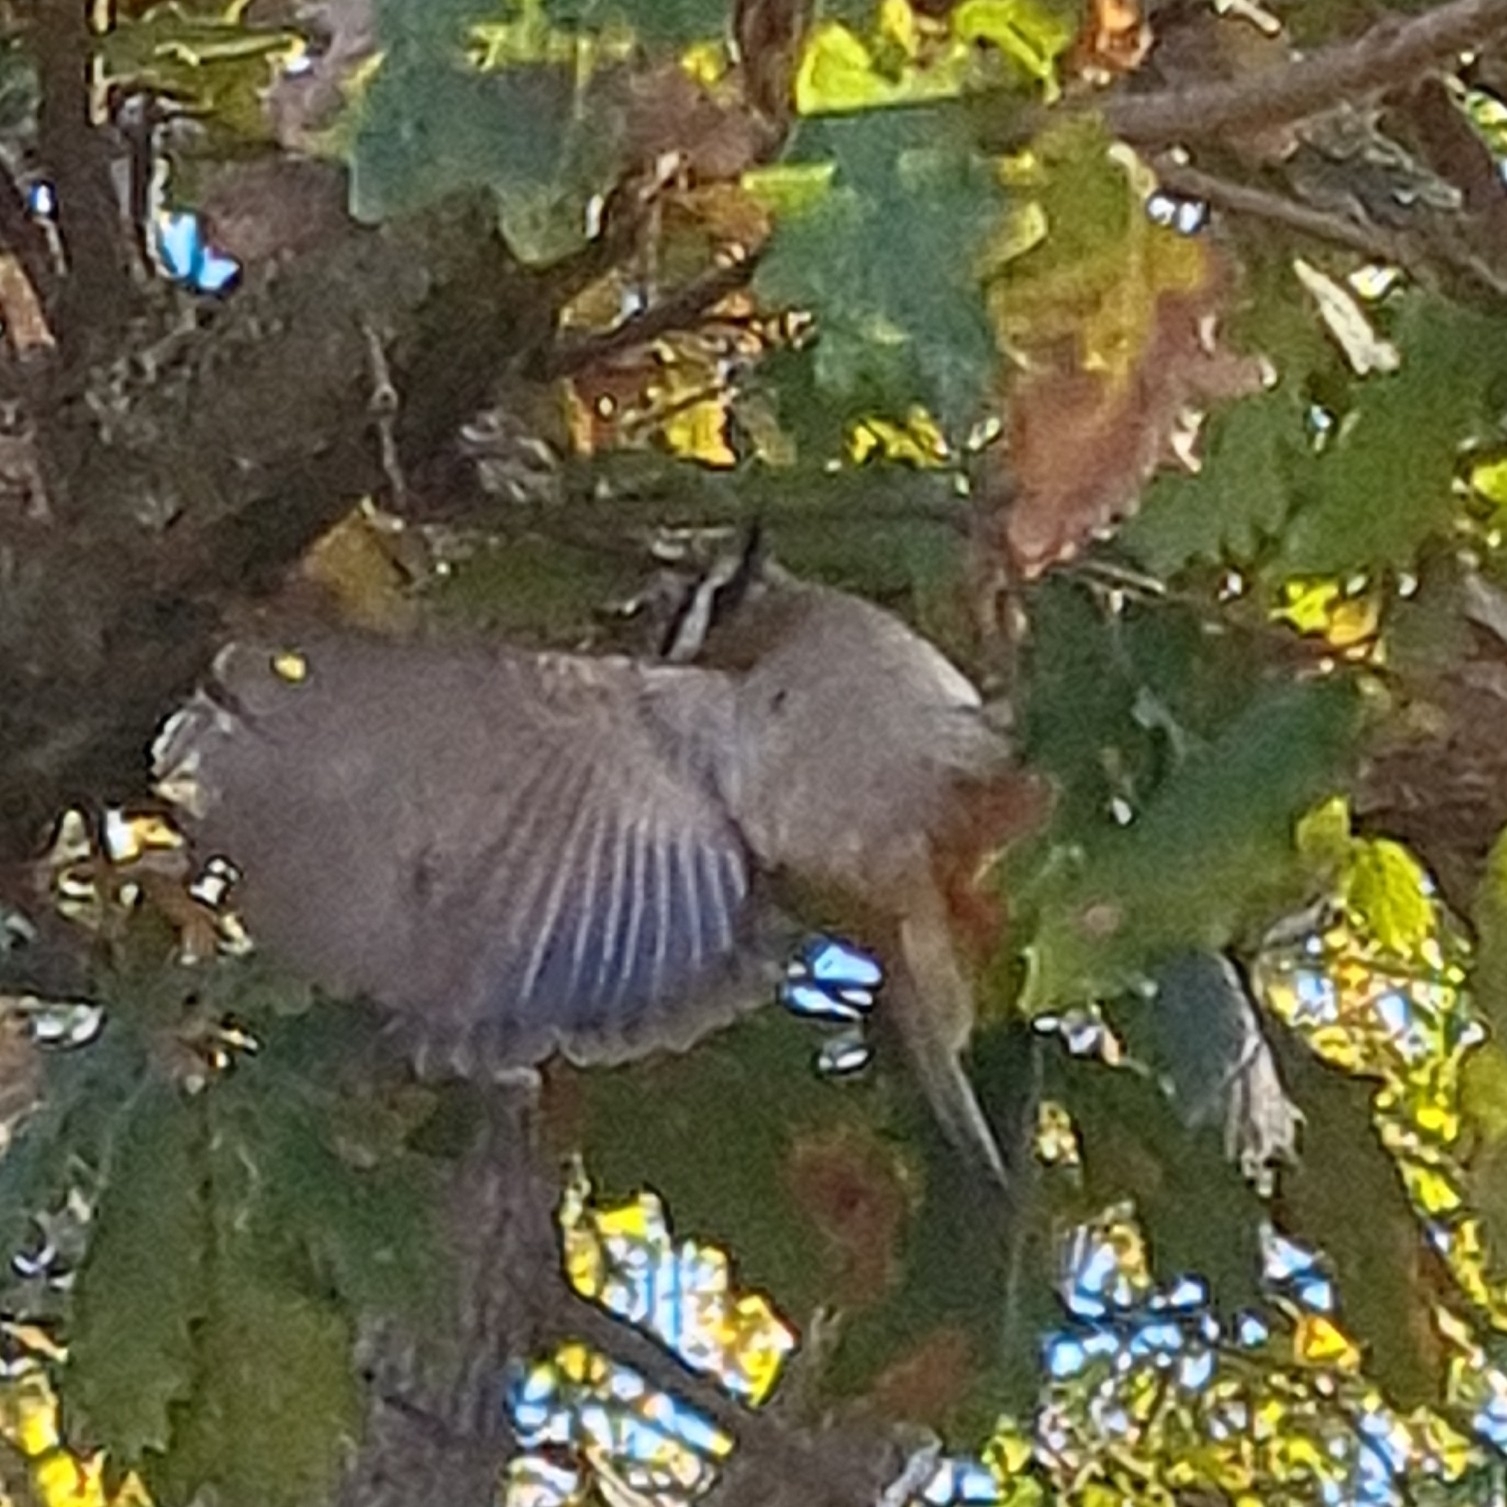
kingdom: Animalia
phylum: Chordata
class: Aves
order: Passeriformes
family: Regulidae
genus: Regulus
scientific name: Regulus ignicapilla
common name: Firecrest
